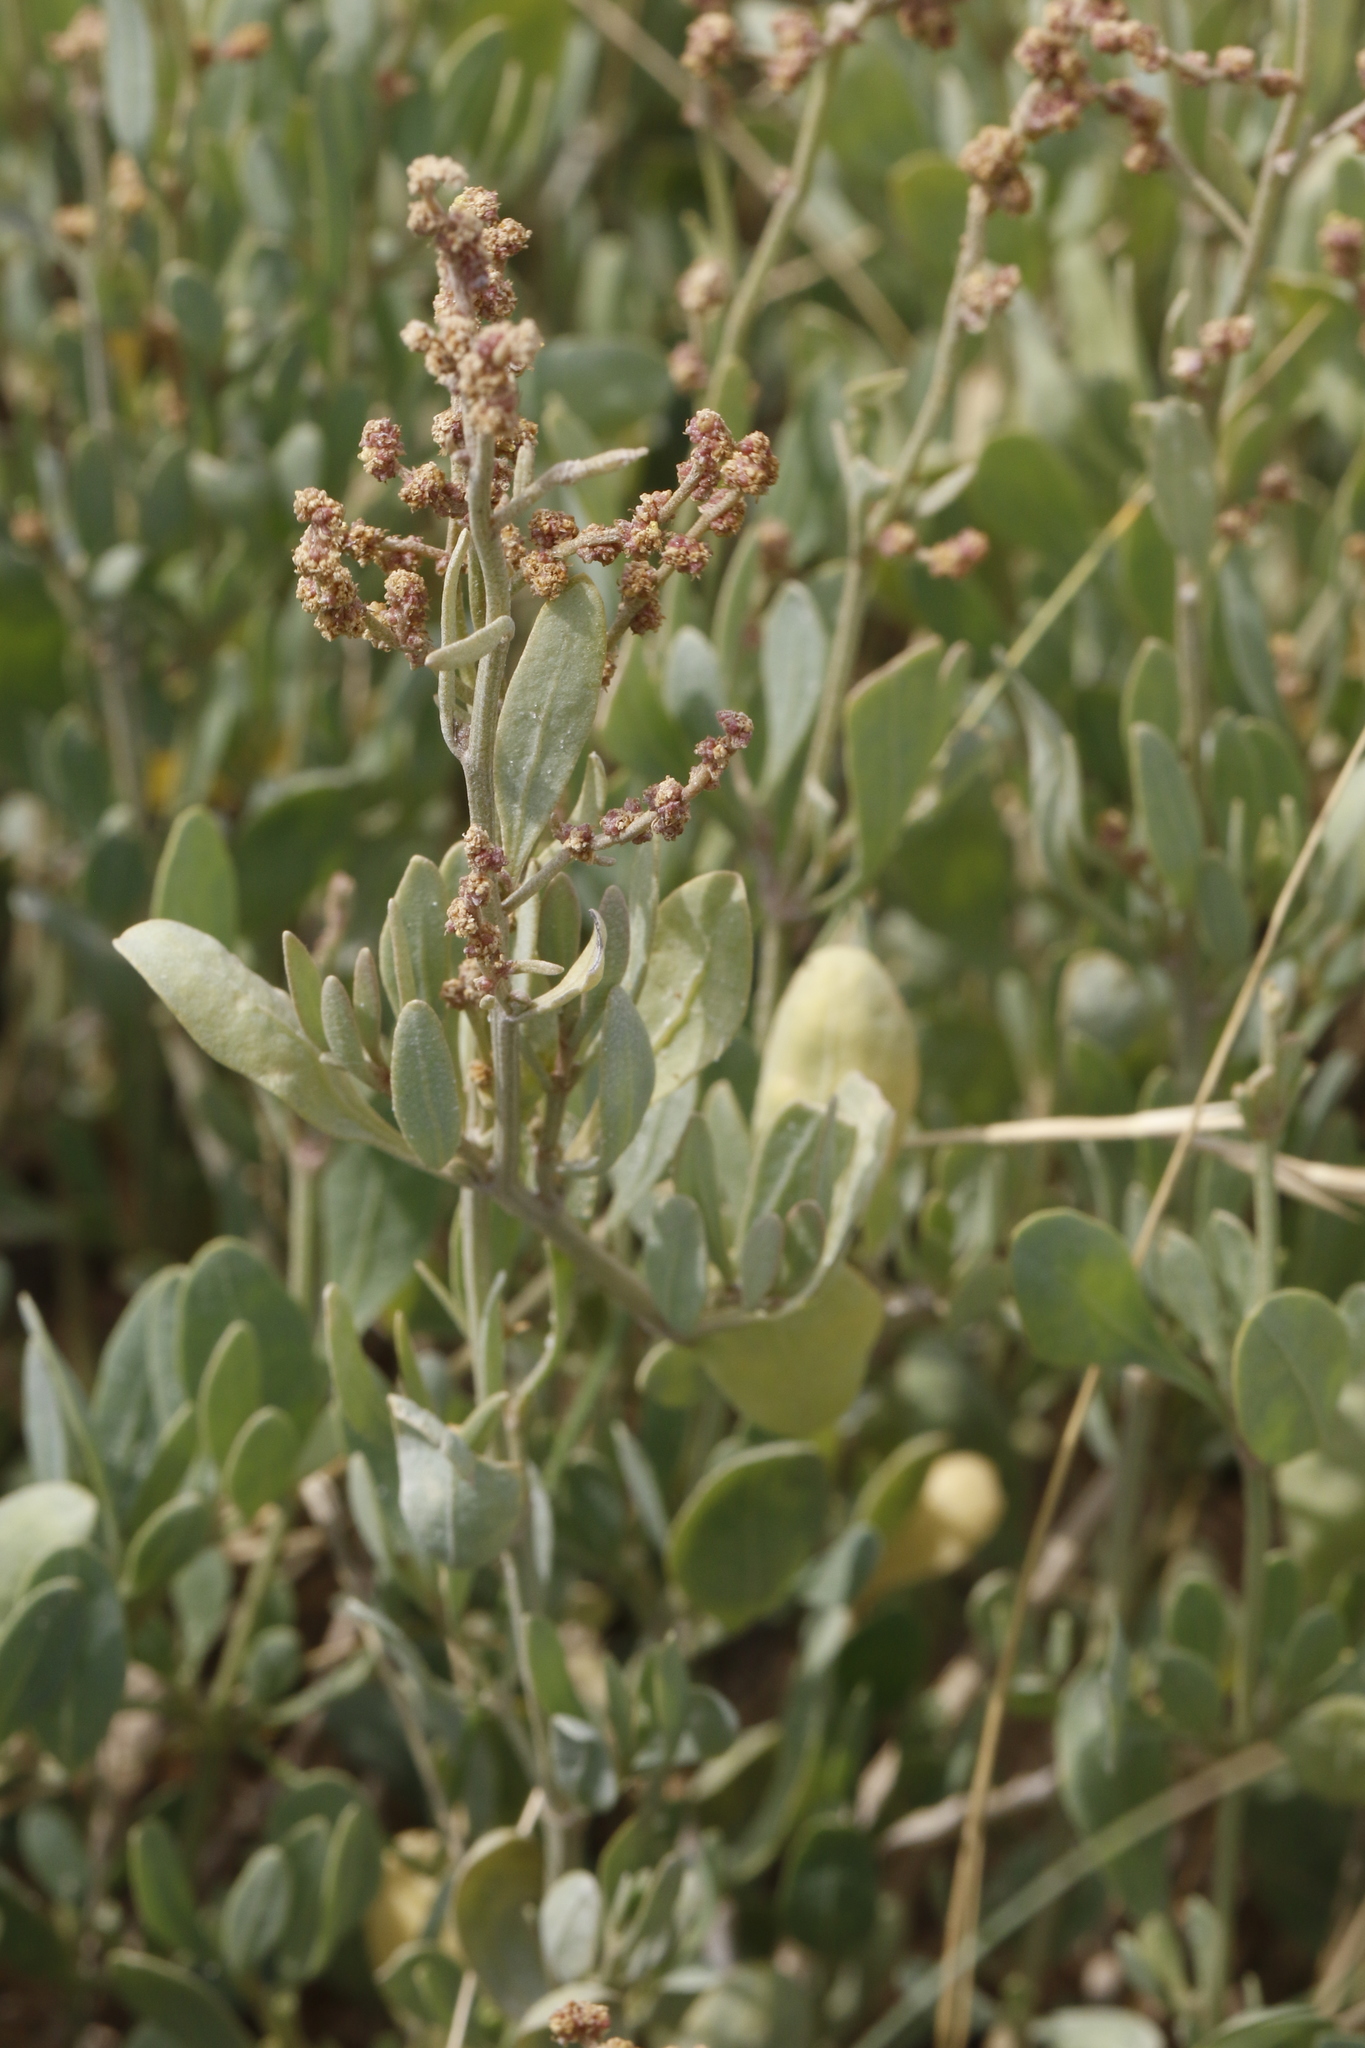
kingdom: Plantae
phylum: Tracheophyta
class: Magnoliopsida
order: Caryophyllales
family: Amaranthaceae
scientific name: Amaranthaceae
